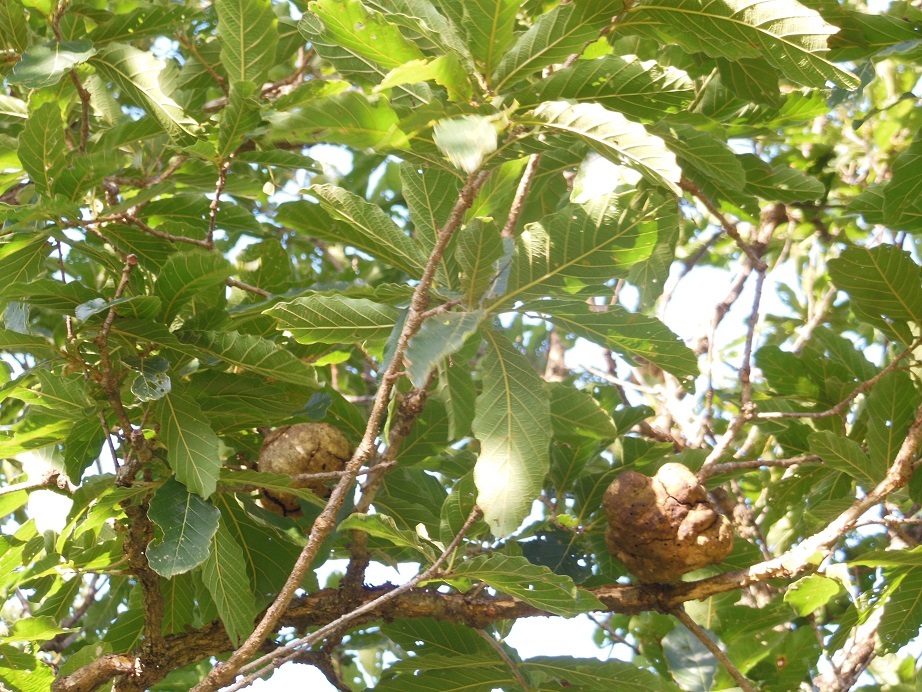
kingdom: Plantae
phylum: Tracheophyta
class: Magnoliopsida
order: Fagales
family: Fagaceae
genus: Quercus
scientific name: Quercus purulhana
